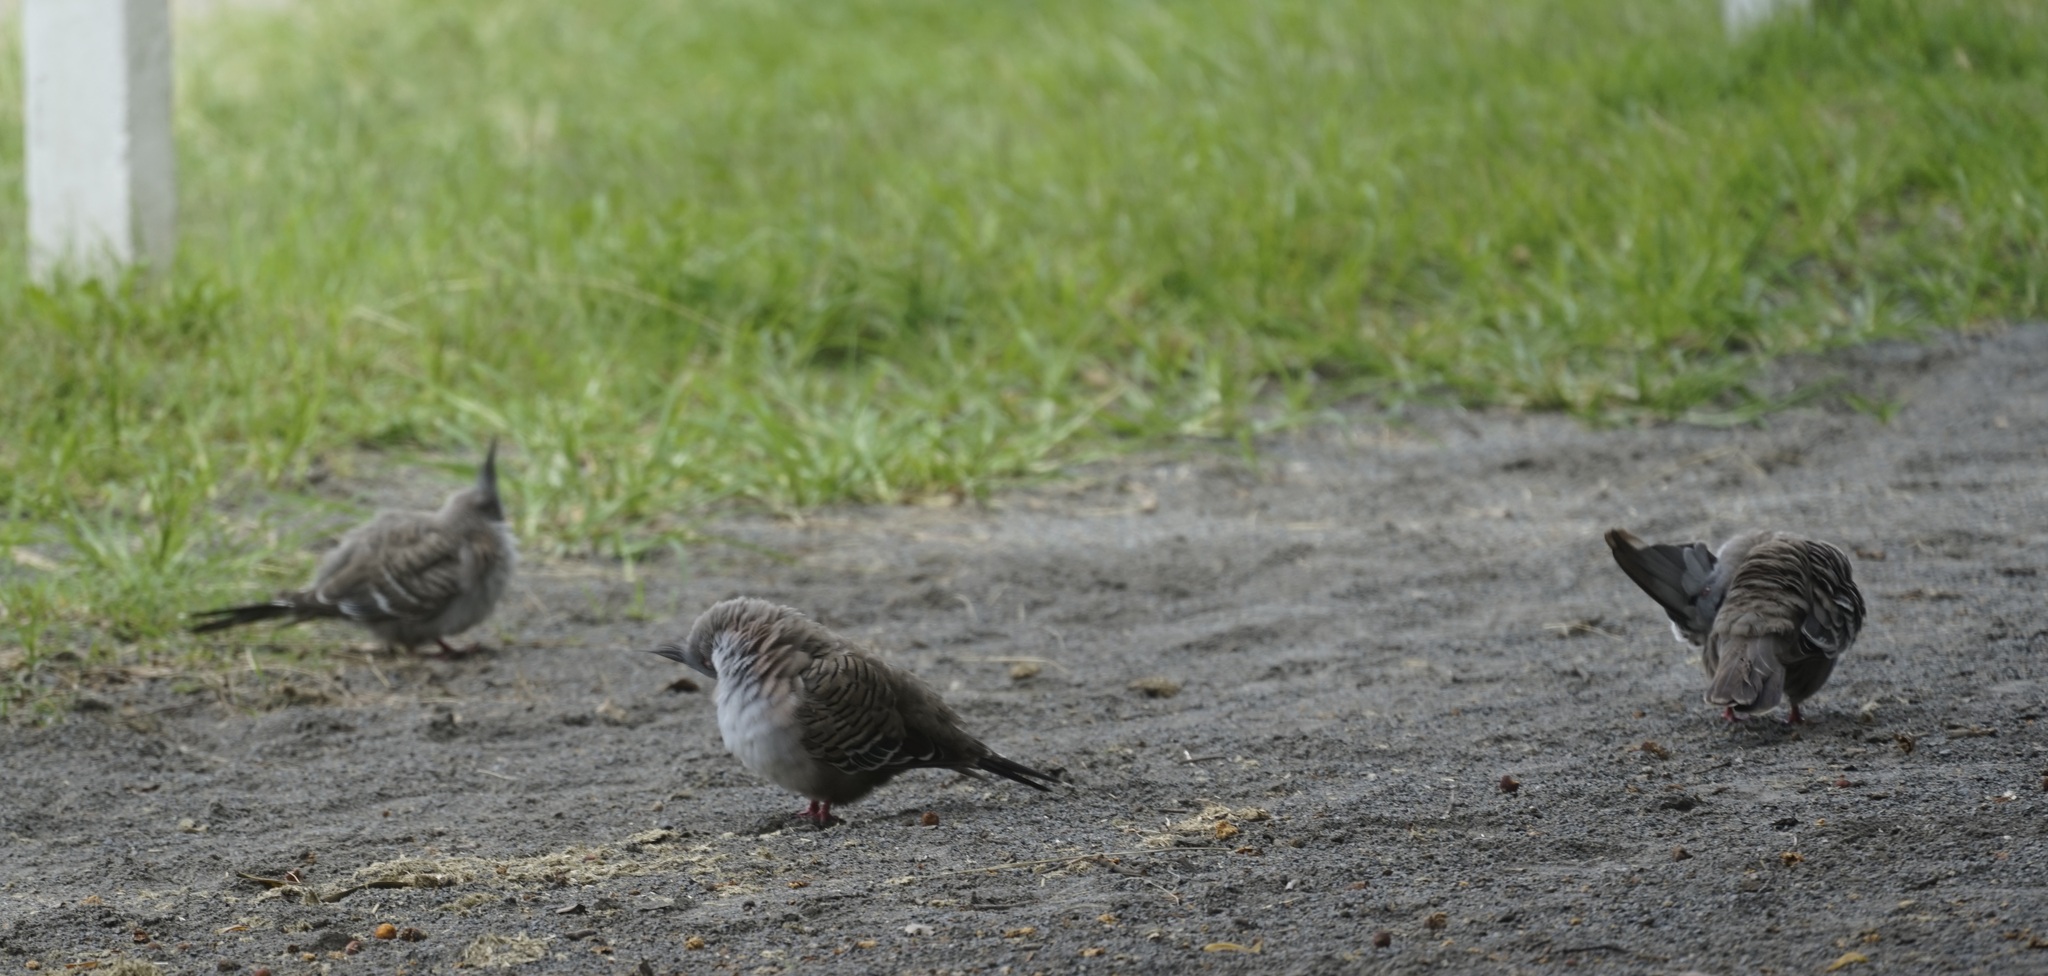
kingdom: Animalia
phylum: Chordata
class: Aves
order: Columbiformes
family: Columbidae
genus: Ocyphaps
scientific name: Ocyphaps lophotes
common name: Crested pigeon
